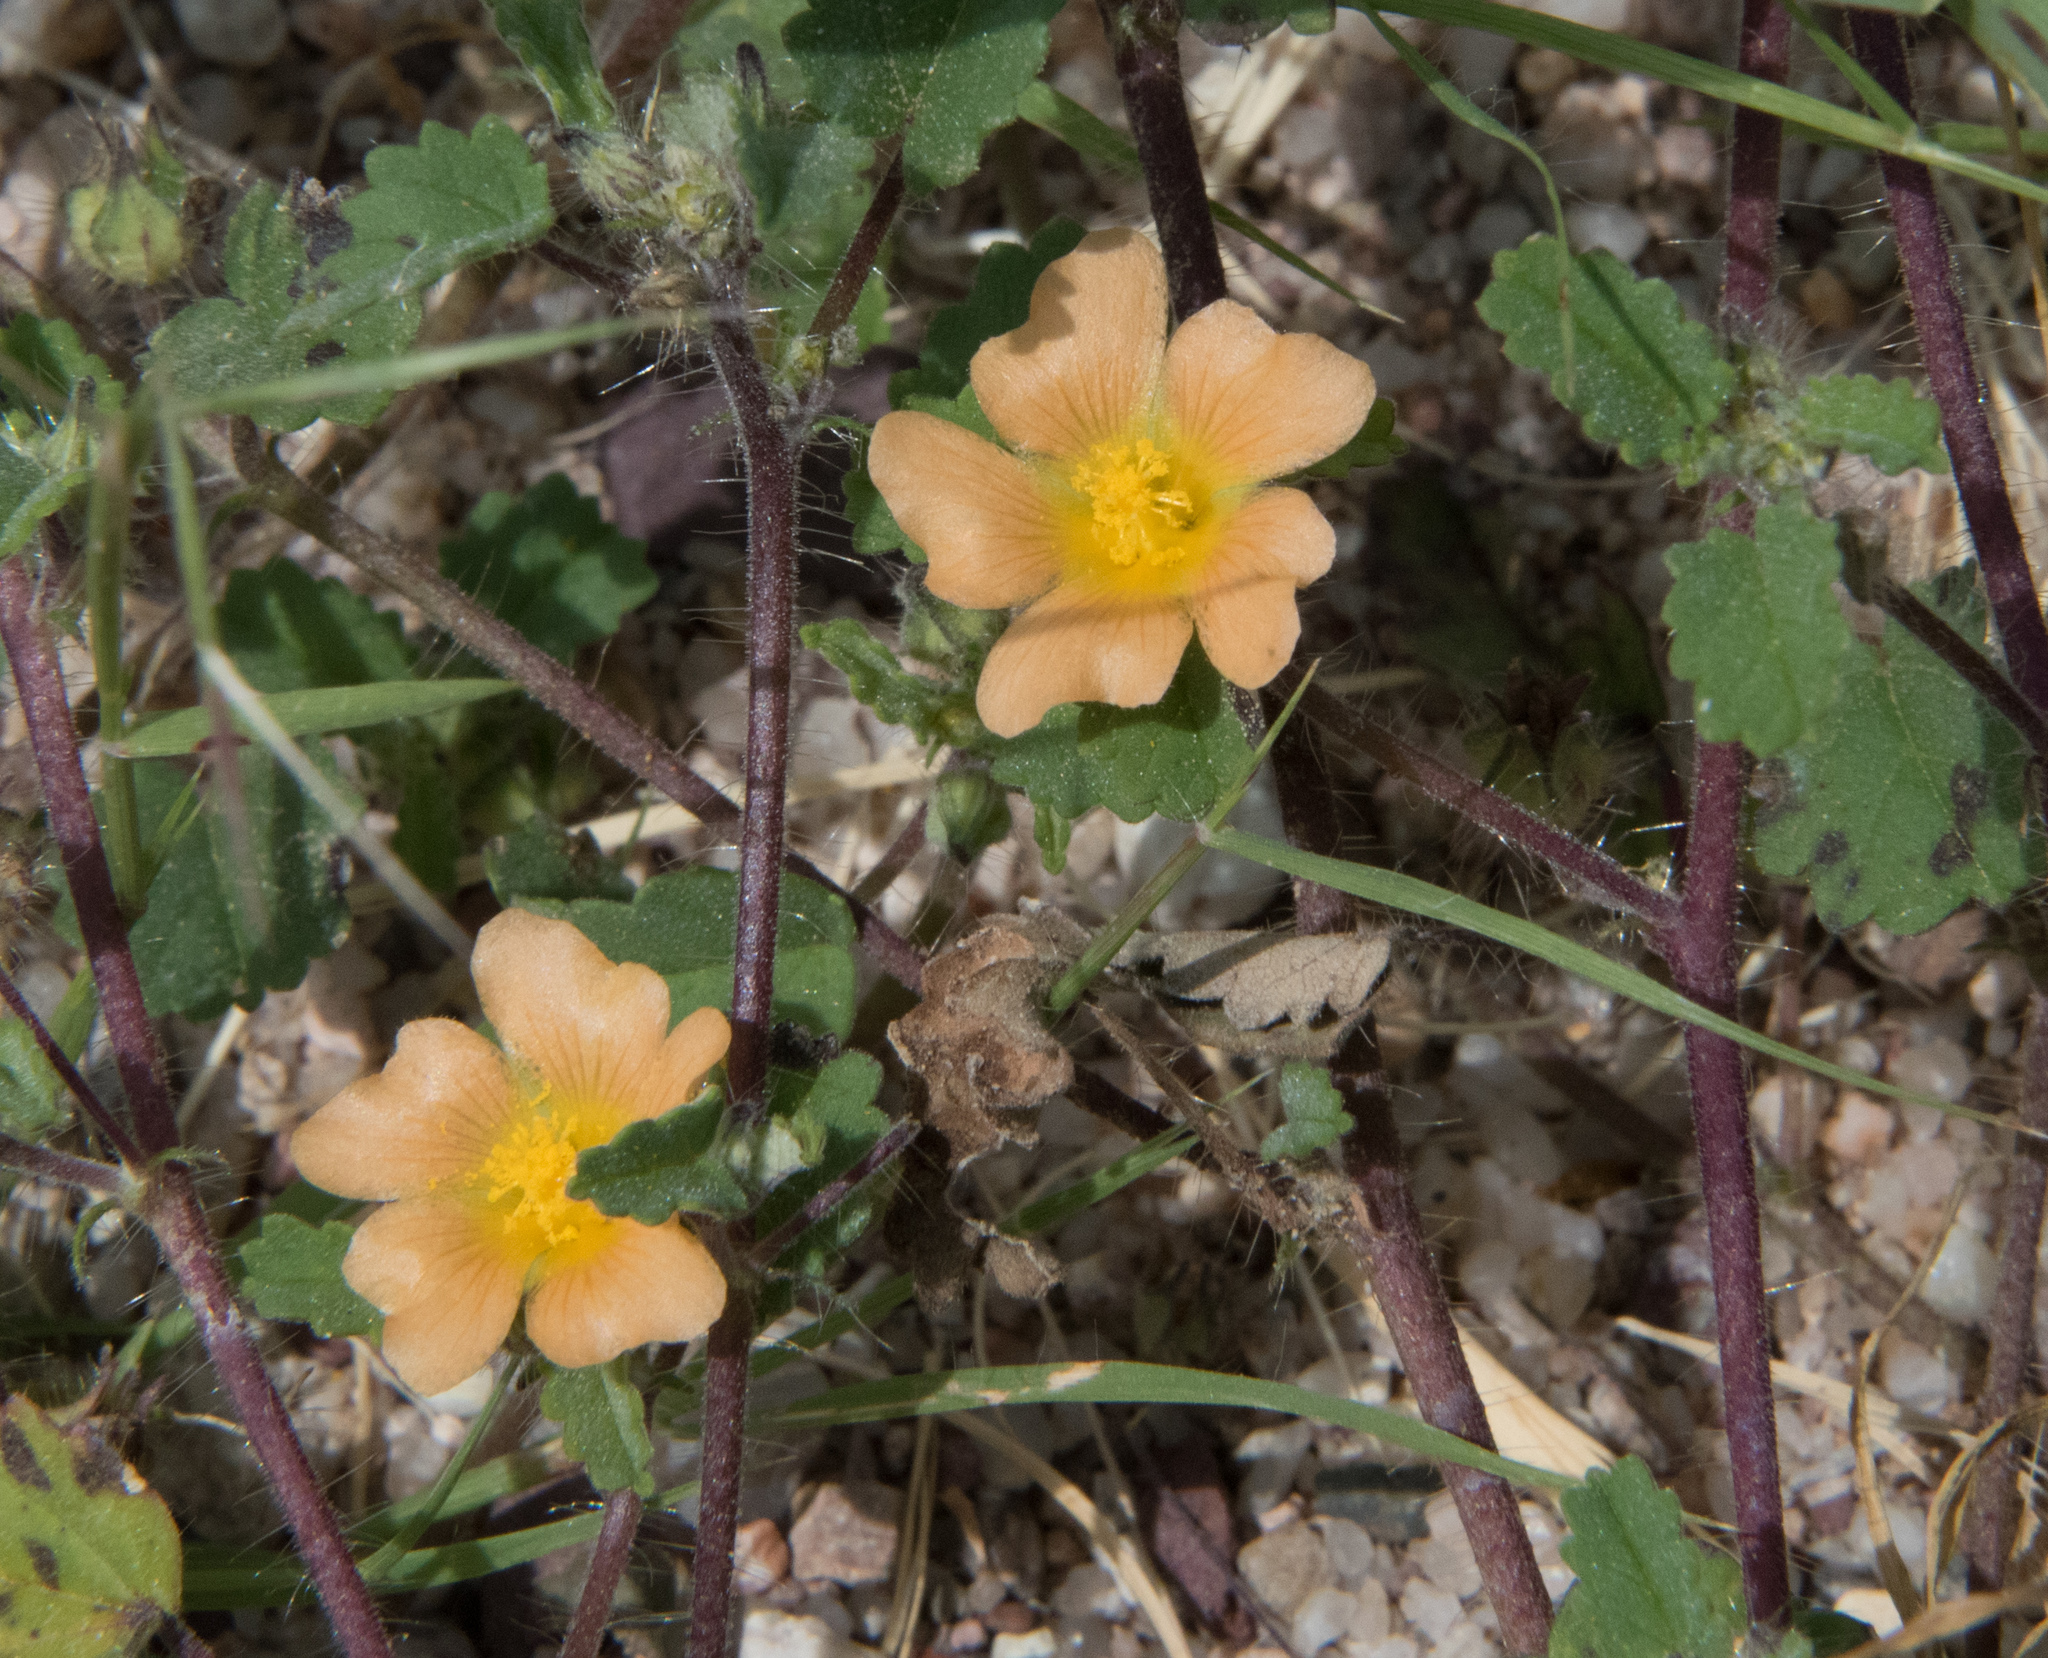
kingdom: Plantae
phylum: Tracheophyta
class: Magnoliopsida
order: Malvales
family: Malvaceae
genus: Sida
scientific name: Sida abutilifolia
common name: Spreading fanpetals
